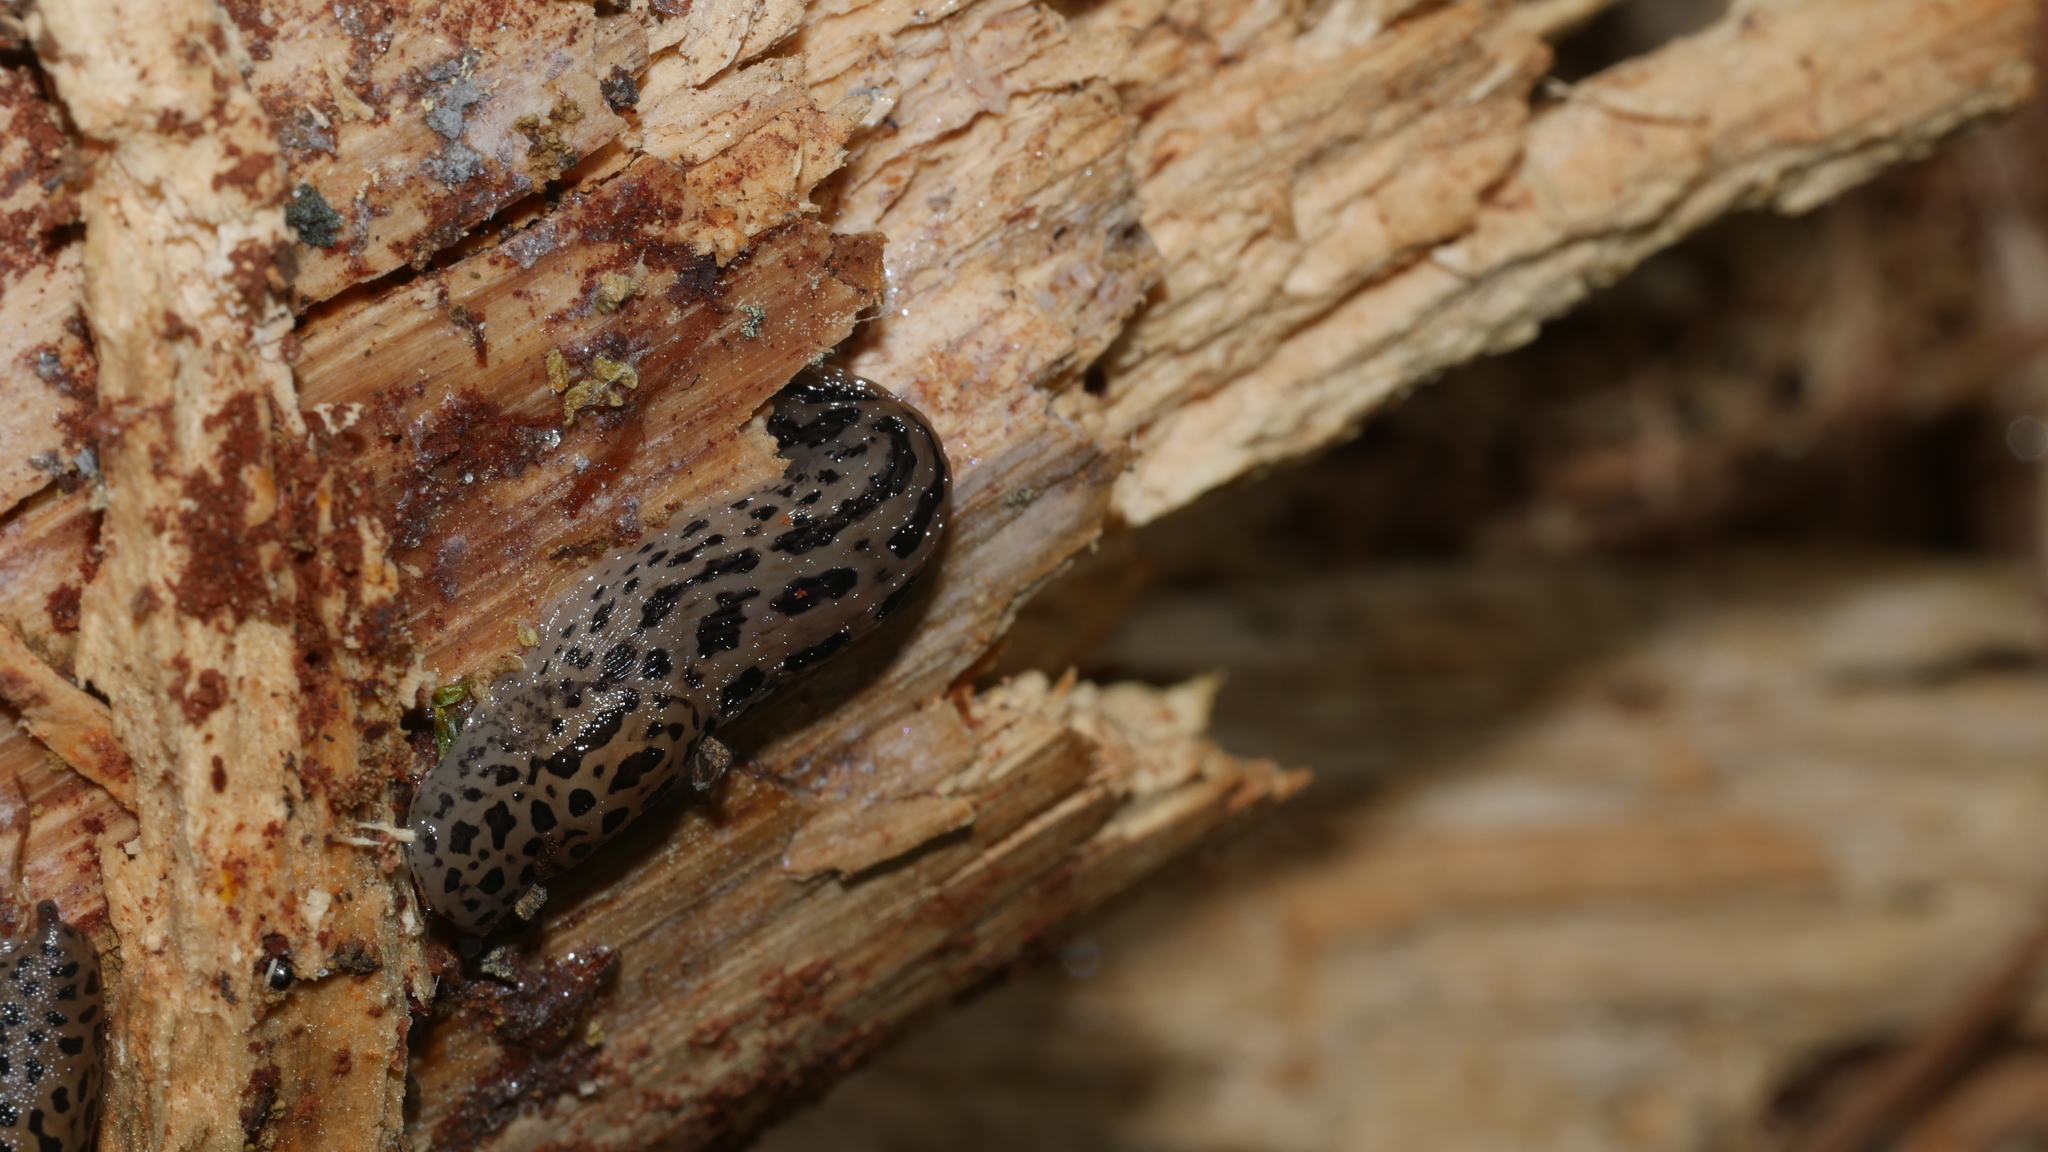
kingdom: Animalia
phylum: Mollusca
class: Gastropoda
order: Stylommatophora
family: Limacidae
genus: Limax
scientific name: Limax maximus
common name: Great grey slug
